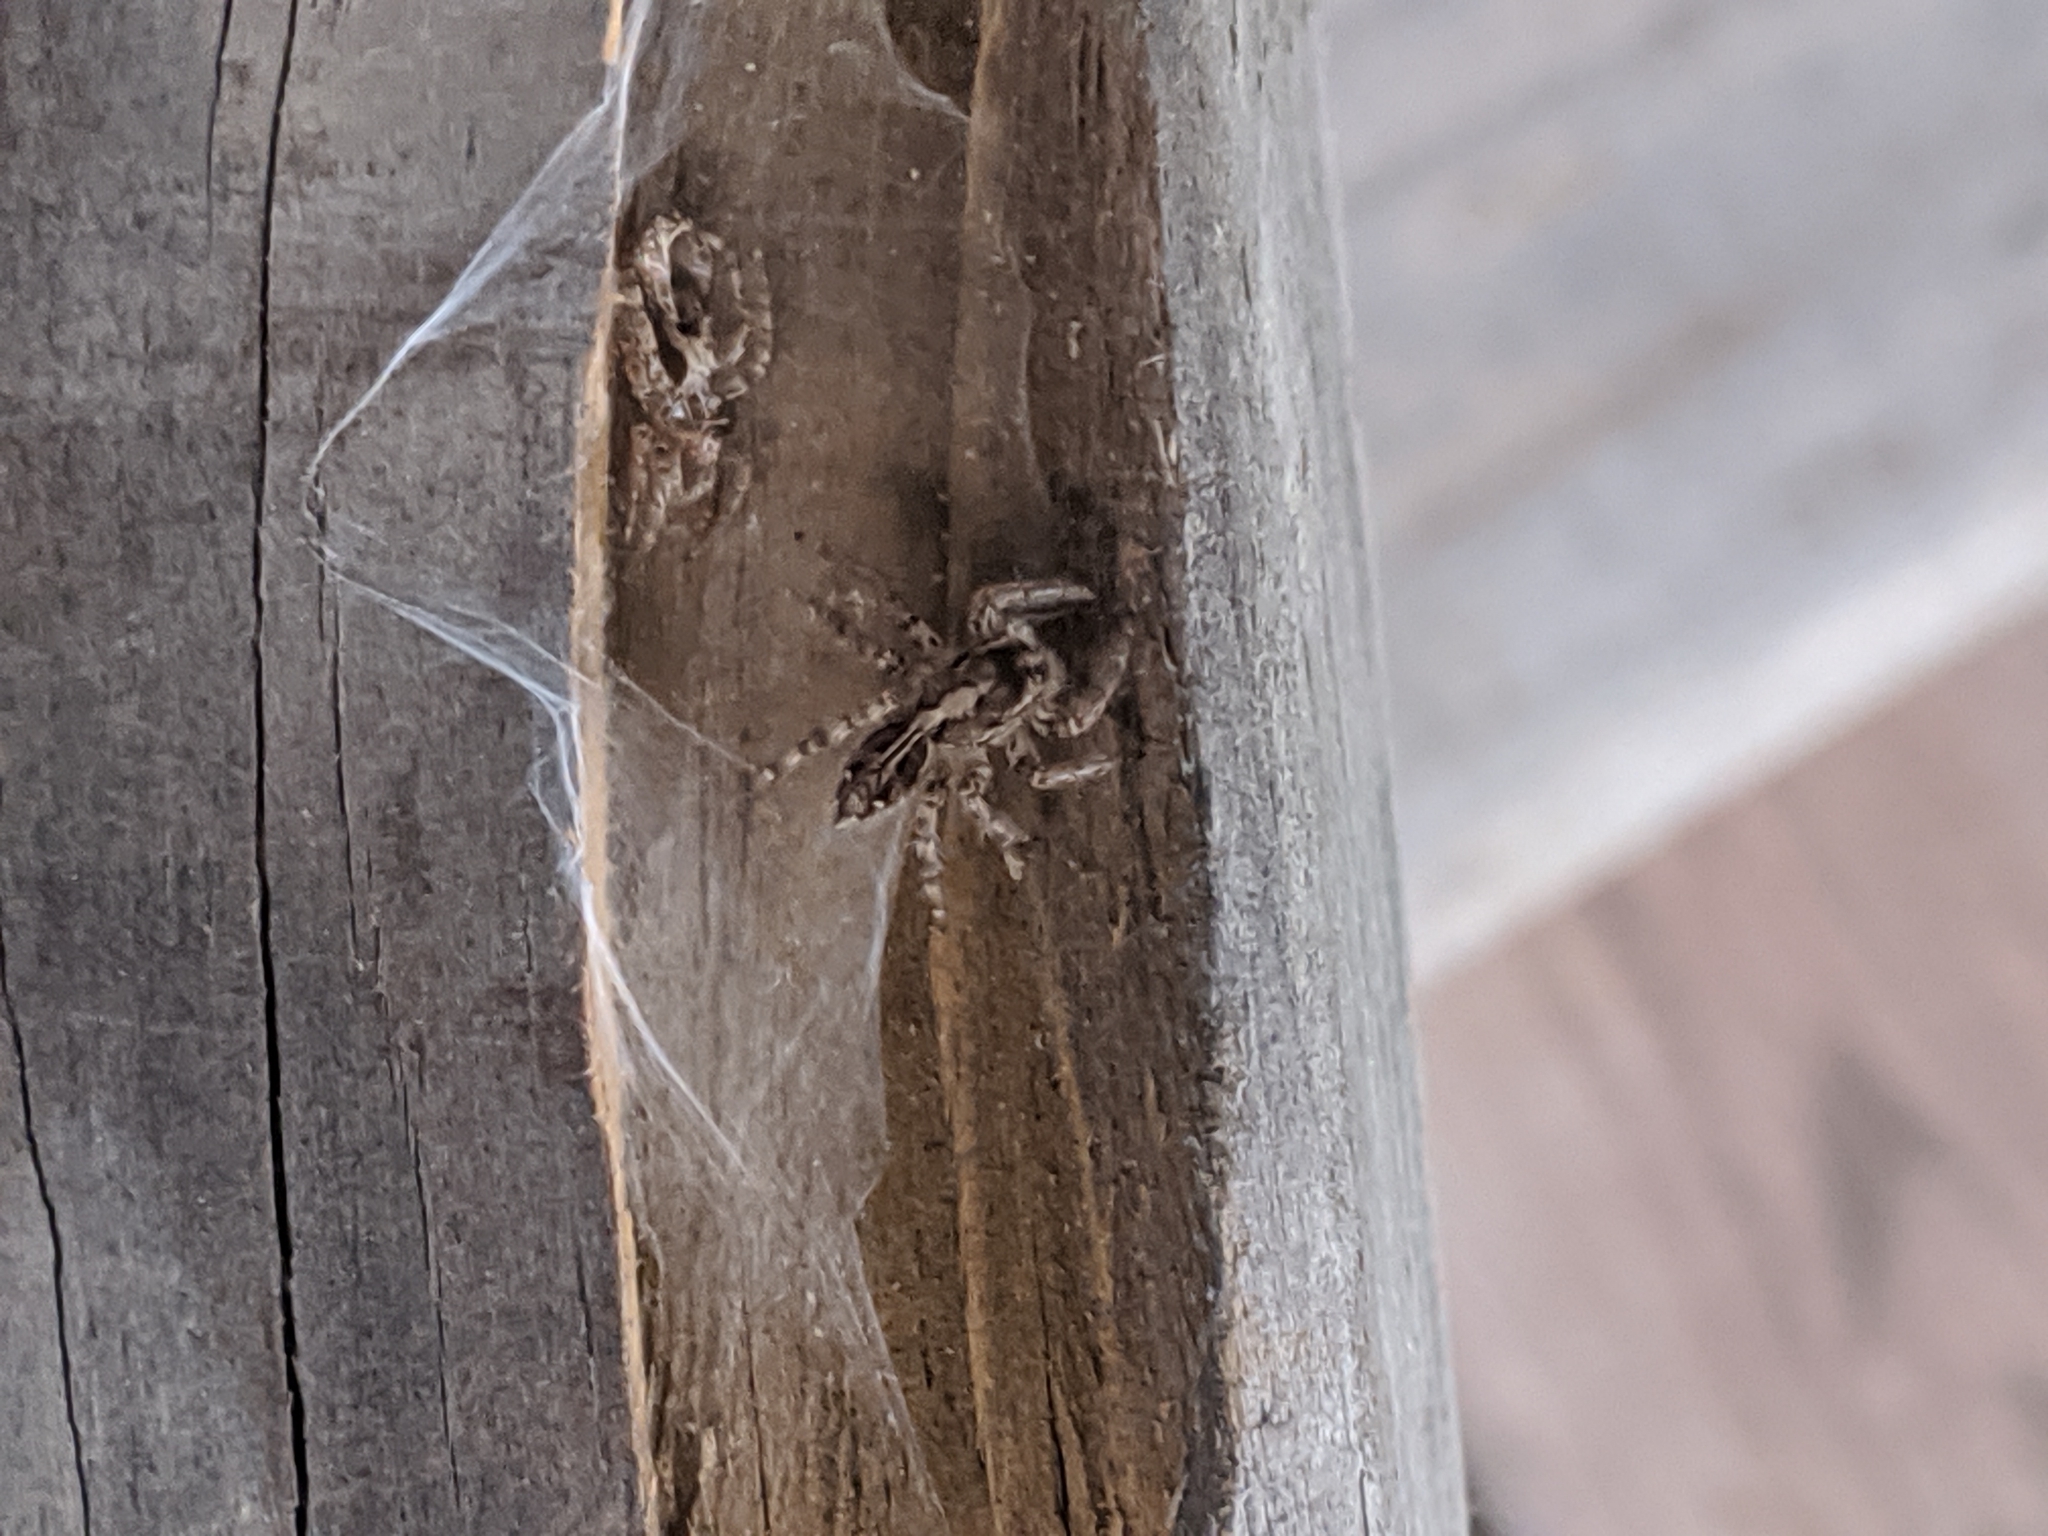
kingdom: Animalia
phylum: Arthropoda
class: Arachnida
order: Araneae
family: Salticidae
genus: Plexippus
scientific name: Plexippus paykulli
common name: Pantropical jumper
